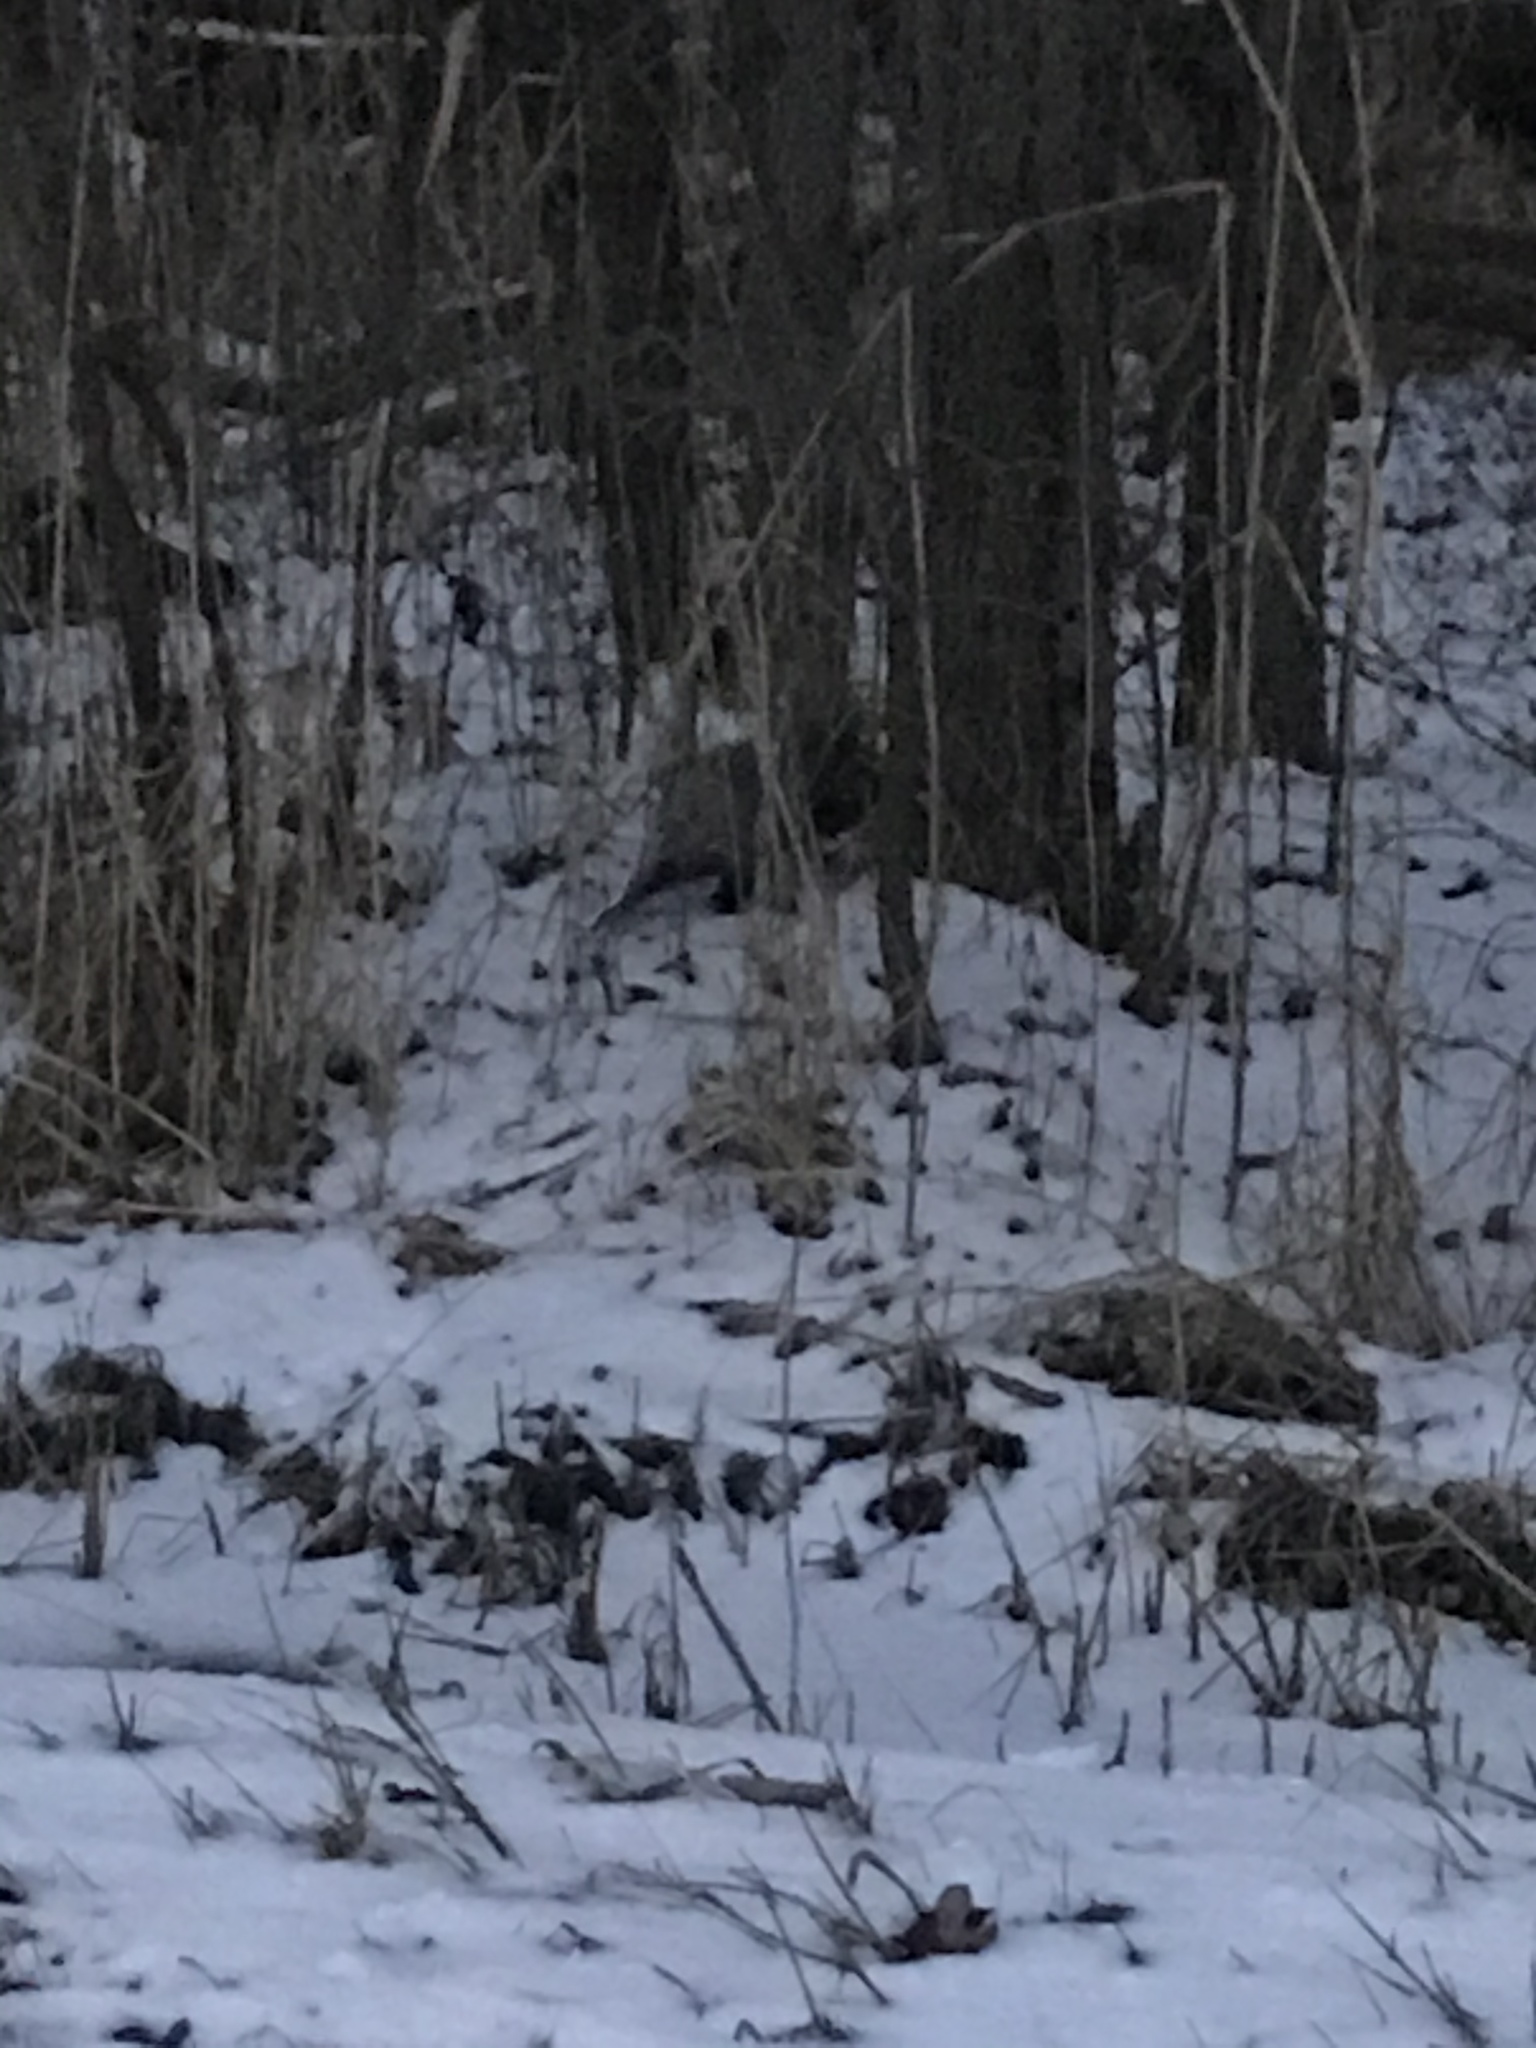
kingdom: Animalia
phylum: Chordata
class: Mammalia
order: Didelphimorphia
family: Didelphidae
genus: Didelphis
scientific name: Didelphis virginiana
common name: Virginia opossum
